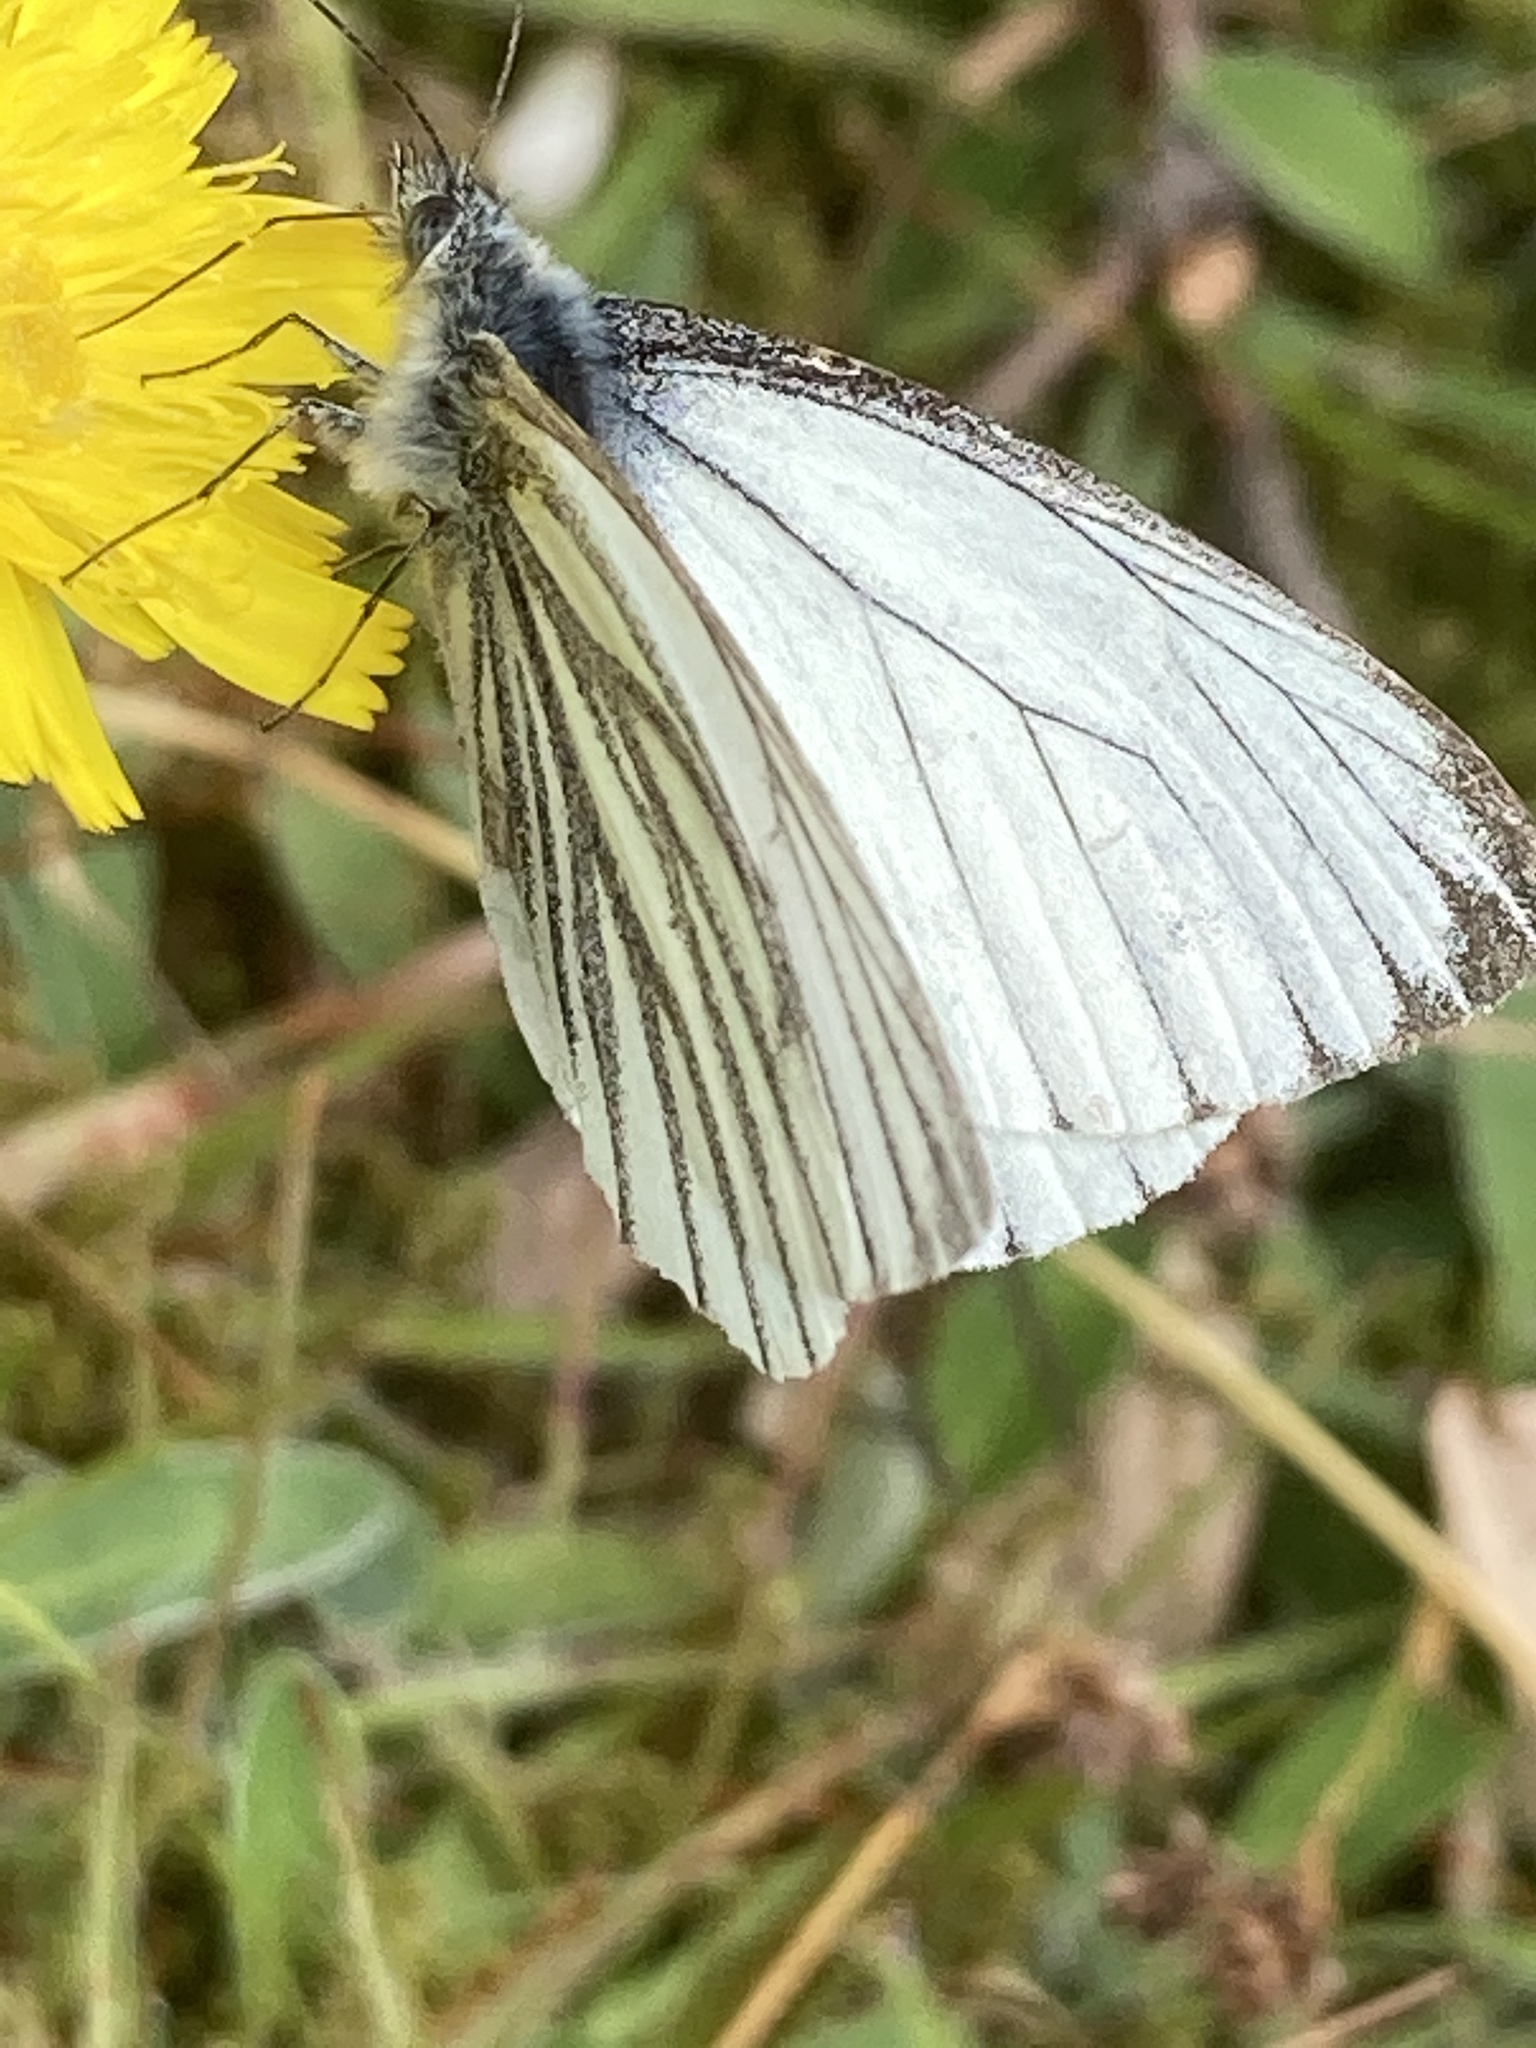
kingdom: Animalia
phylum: Arthropoda
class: Insecta
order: Lepidoptera
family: Pieridae
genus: Pieris
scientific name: Pieris napi
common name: Green-veined white
